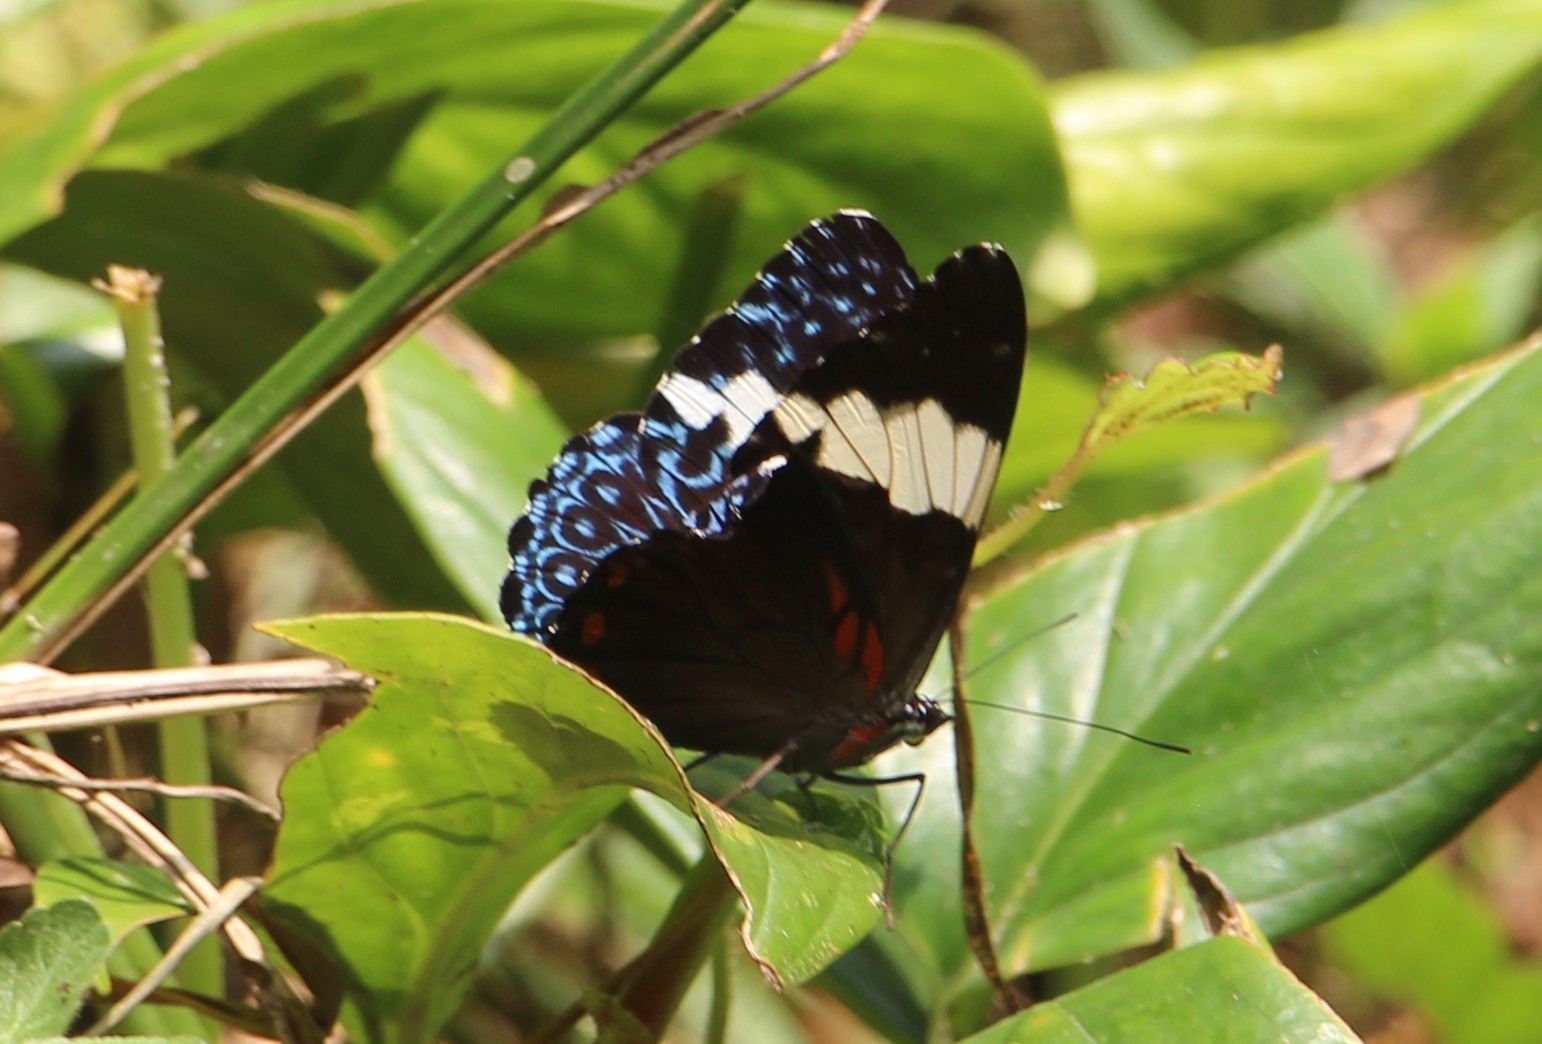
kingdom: Animalia
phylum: Arthropoda
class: Insecta
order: Lepidoptera
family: Nymphalidae
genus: Hamadryas
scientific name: Hamadryas arinome
